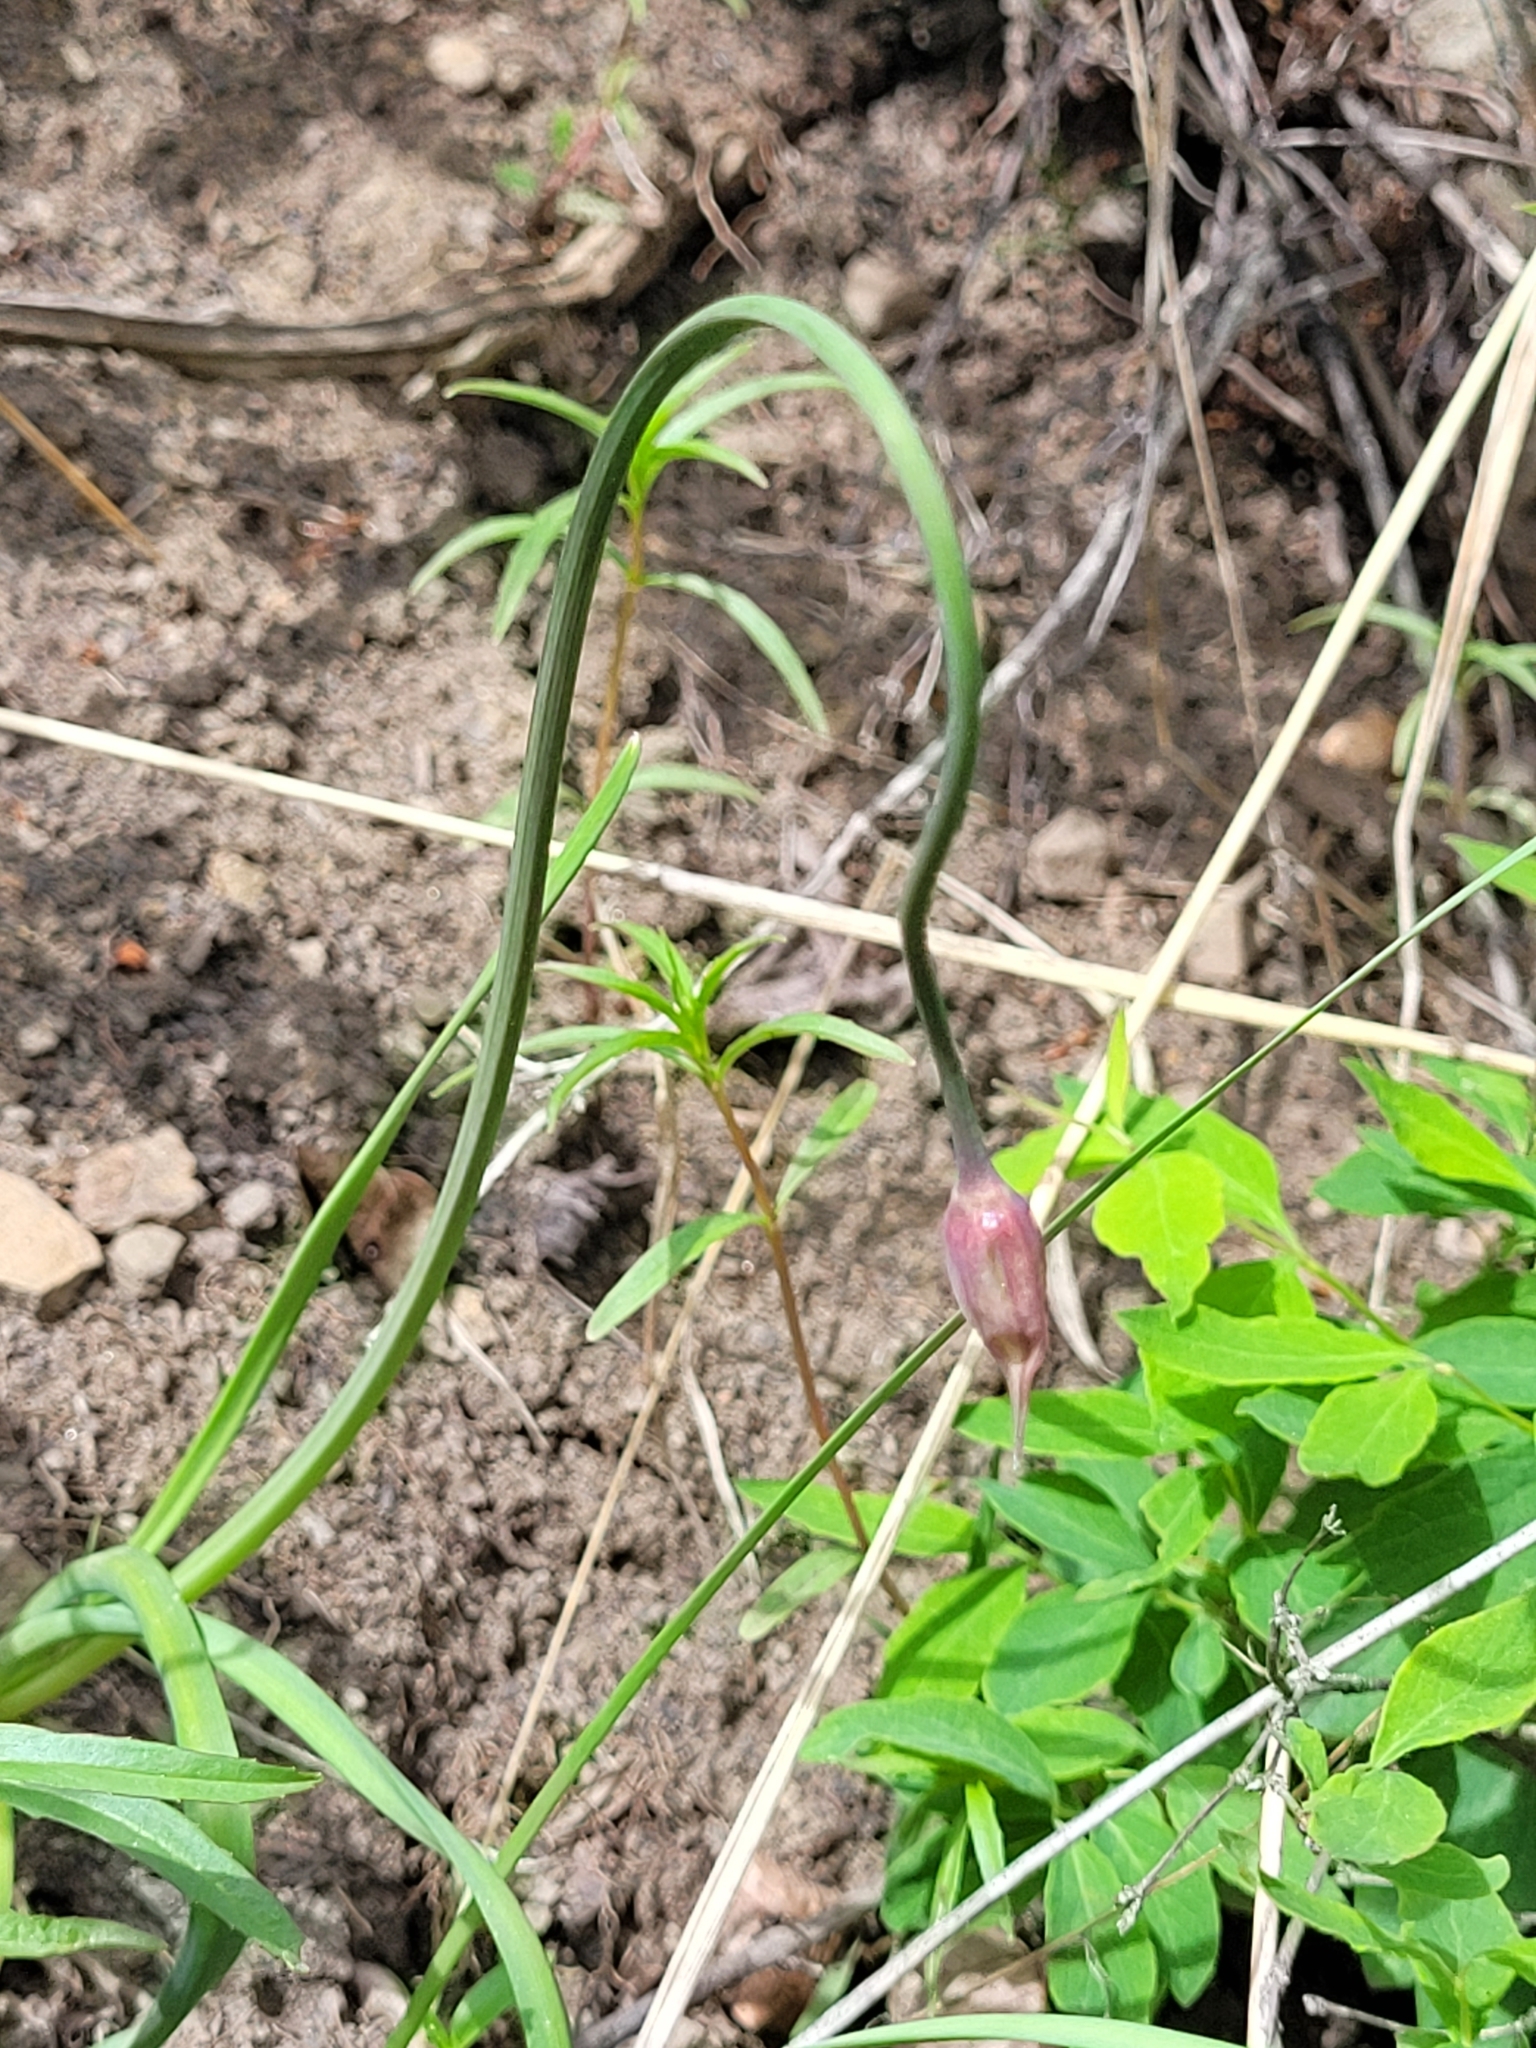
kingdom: Plantae
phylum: Tracheophyta
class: Liliopsida
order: Asparagales
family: Amaryllidaceae
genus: Allium
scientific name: Allium cernuum
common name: Nodding onion
